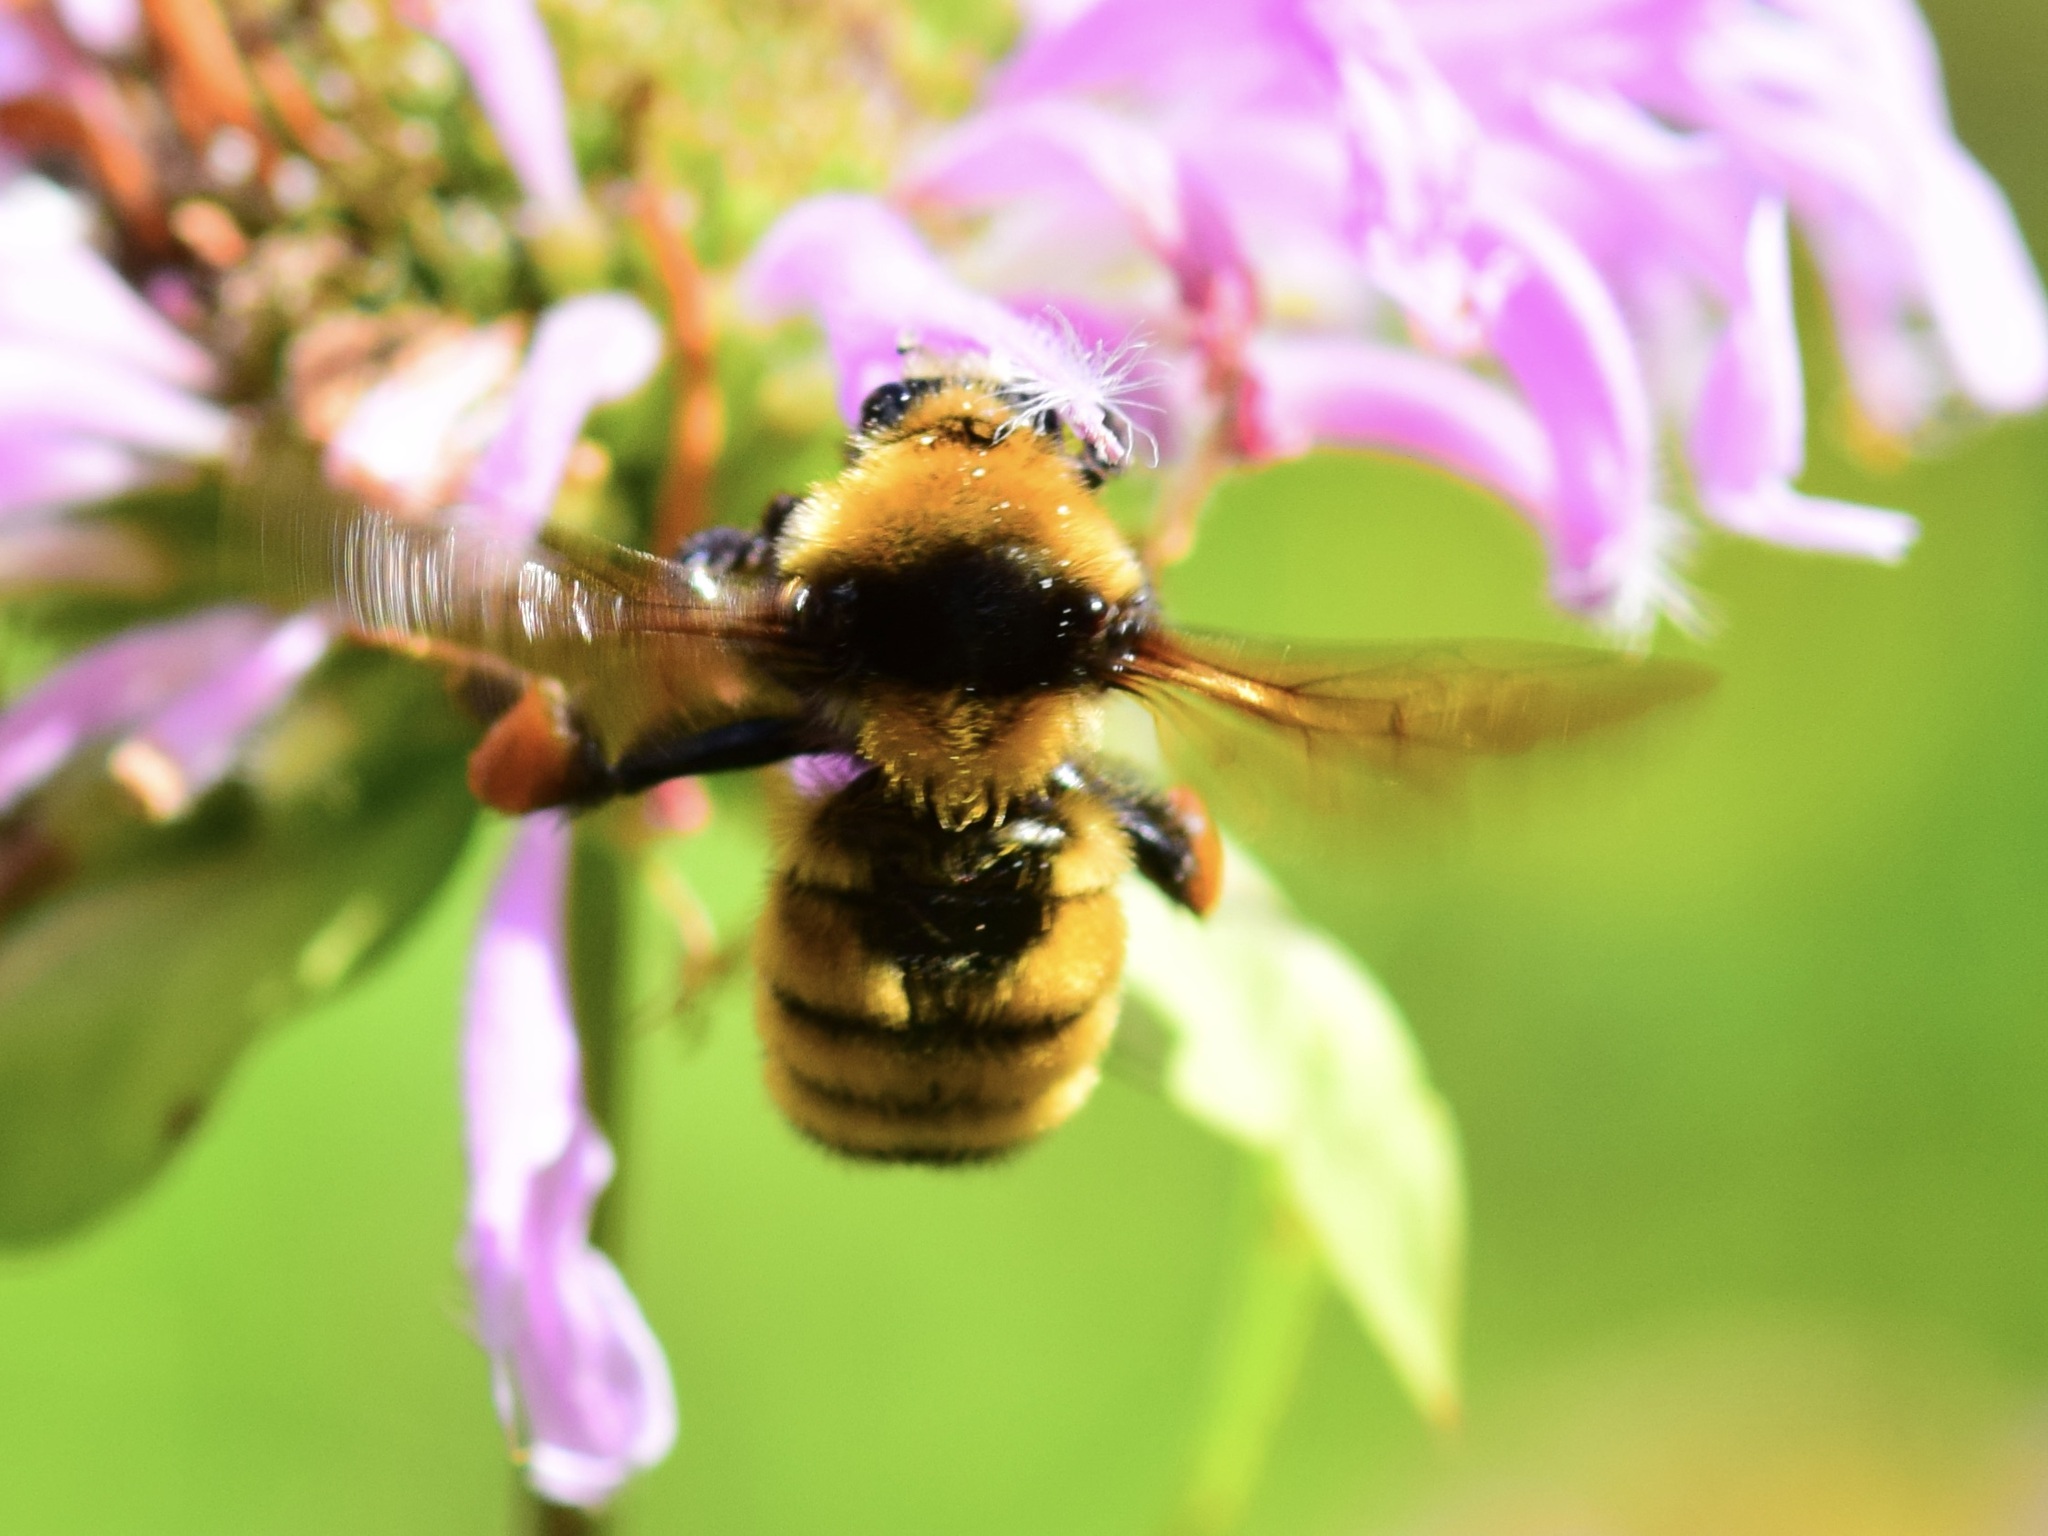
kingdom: Animalia
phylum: Arthropoda
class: Insecta
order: Hymenoptera
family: Apidae
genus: Bombus
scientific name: Bombus borealis
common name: Northern amber bumble bee
